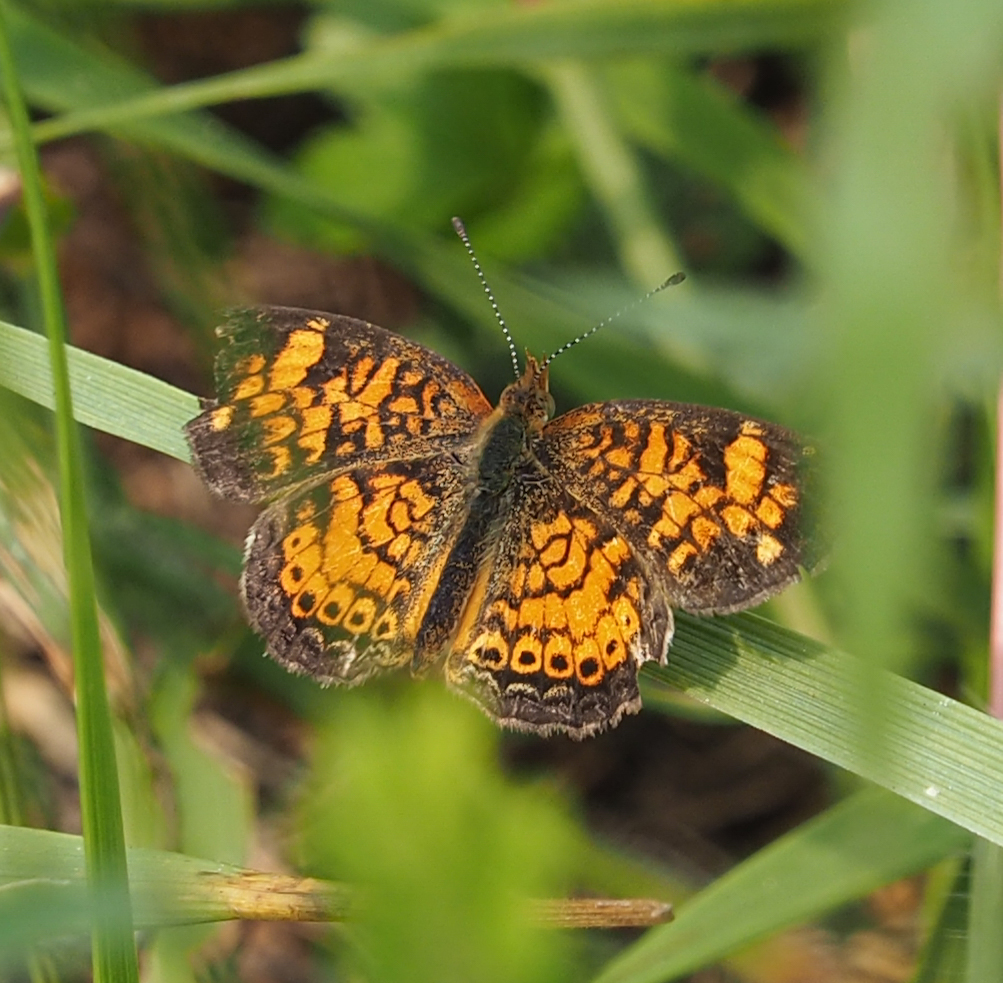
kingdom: Animalia
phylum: Arthropoda
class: Insecta
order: Lepidoptera
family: Nymphalidae
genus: Phyciodes
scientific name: Phyciodes tharos
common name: Pearl crescent
